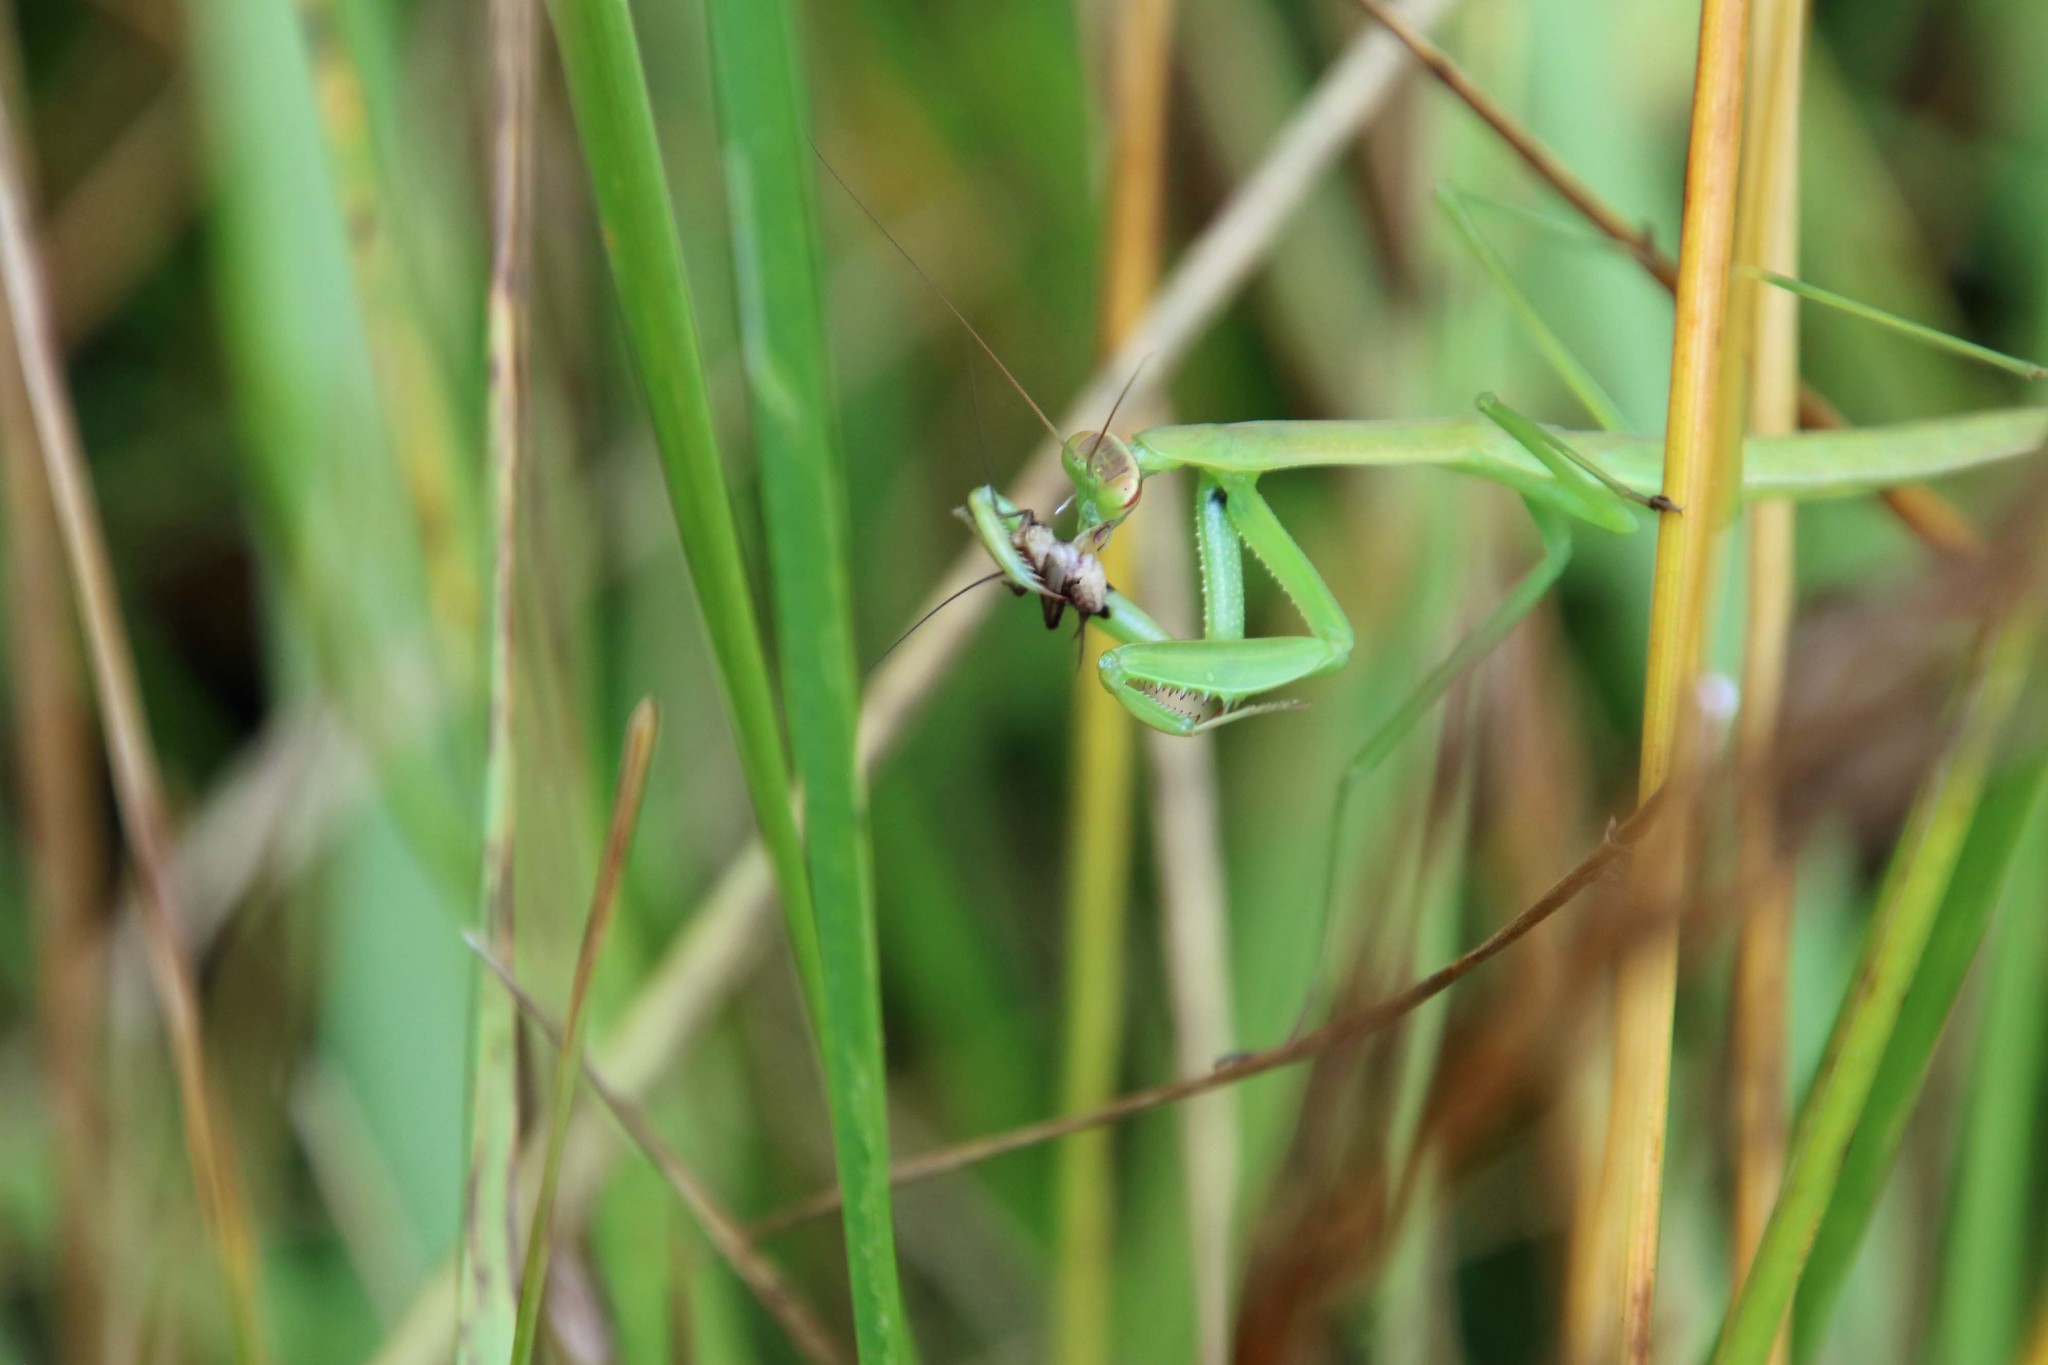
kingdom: Animalia
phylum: Arthropoda
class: Insecta
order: Mantodea
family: Mantidae
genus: Mantis
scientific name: Mantis religiosa
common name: Praying mantis
